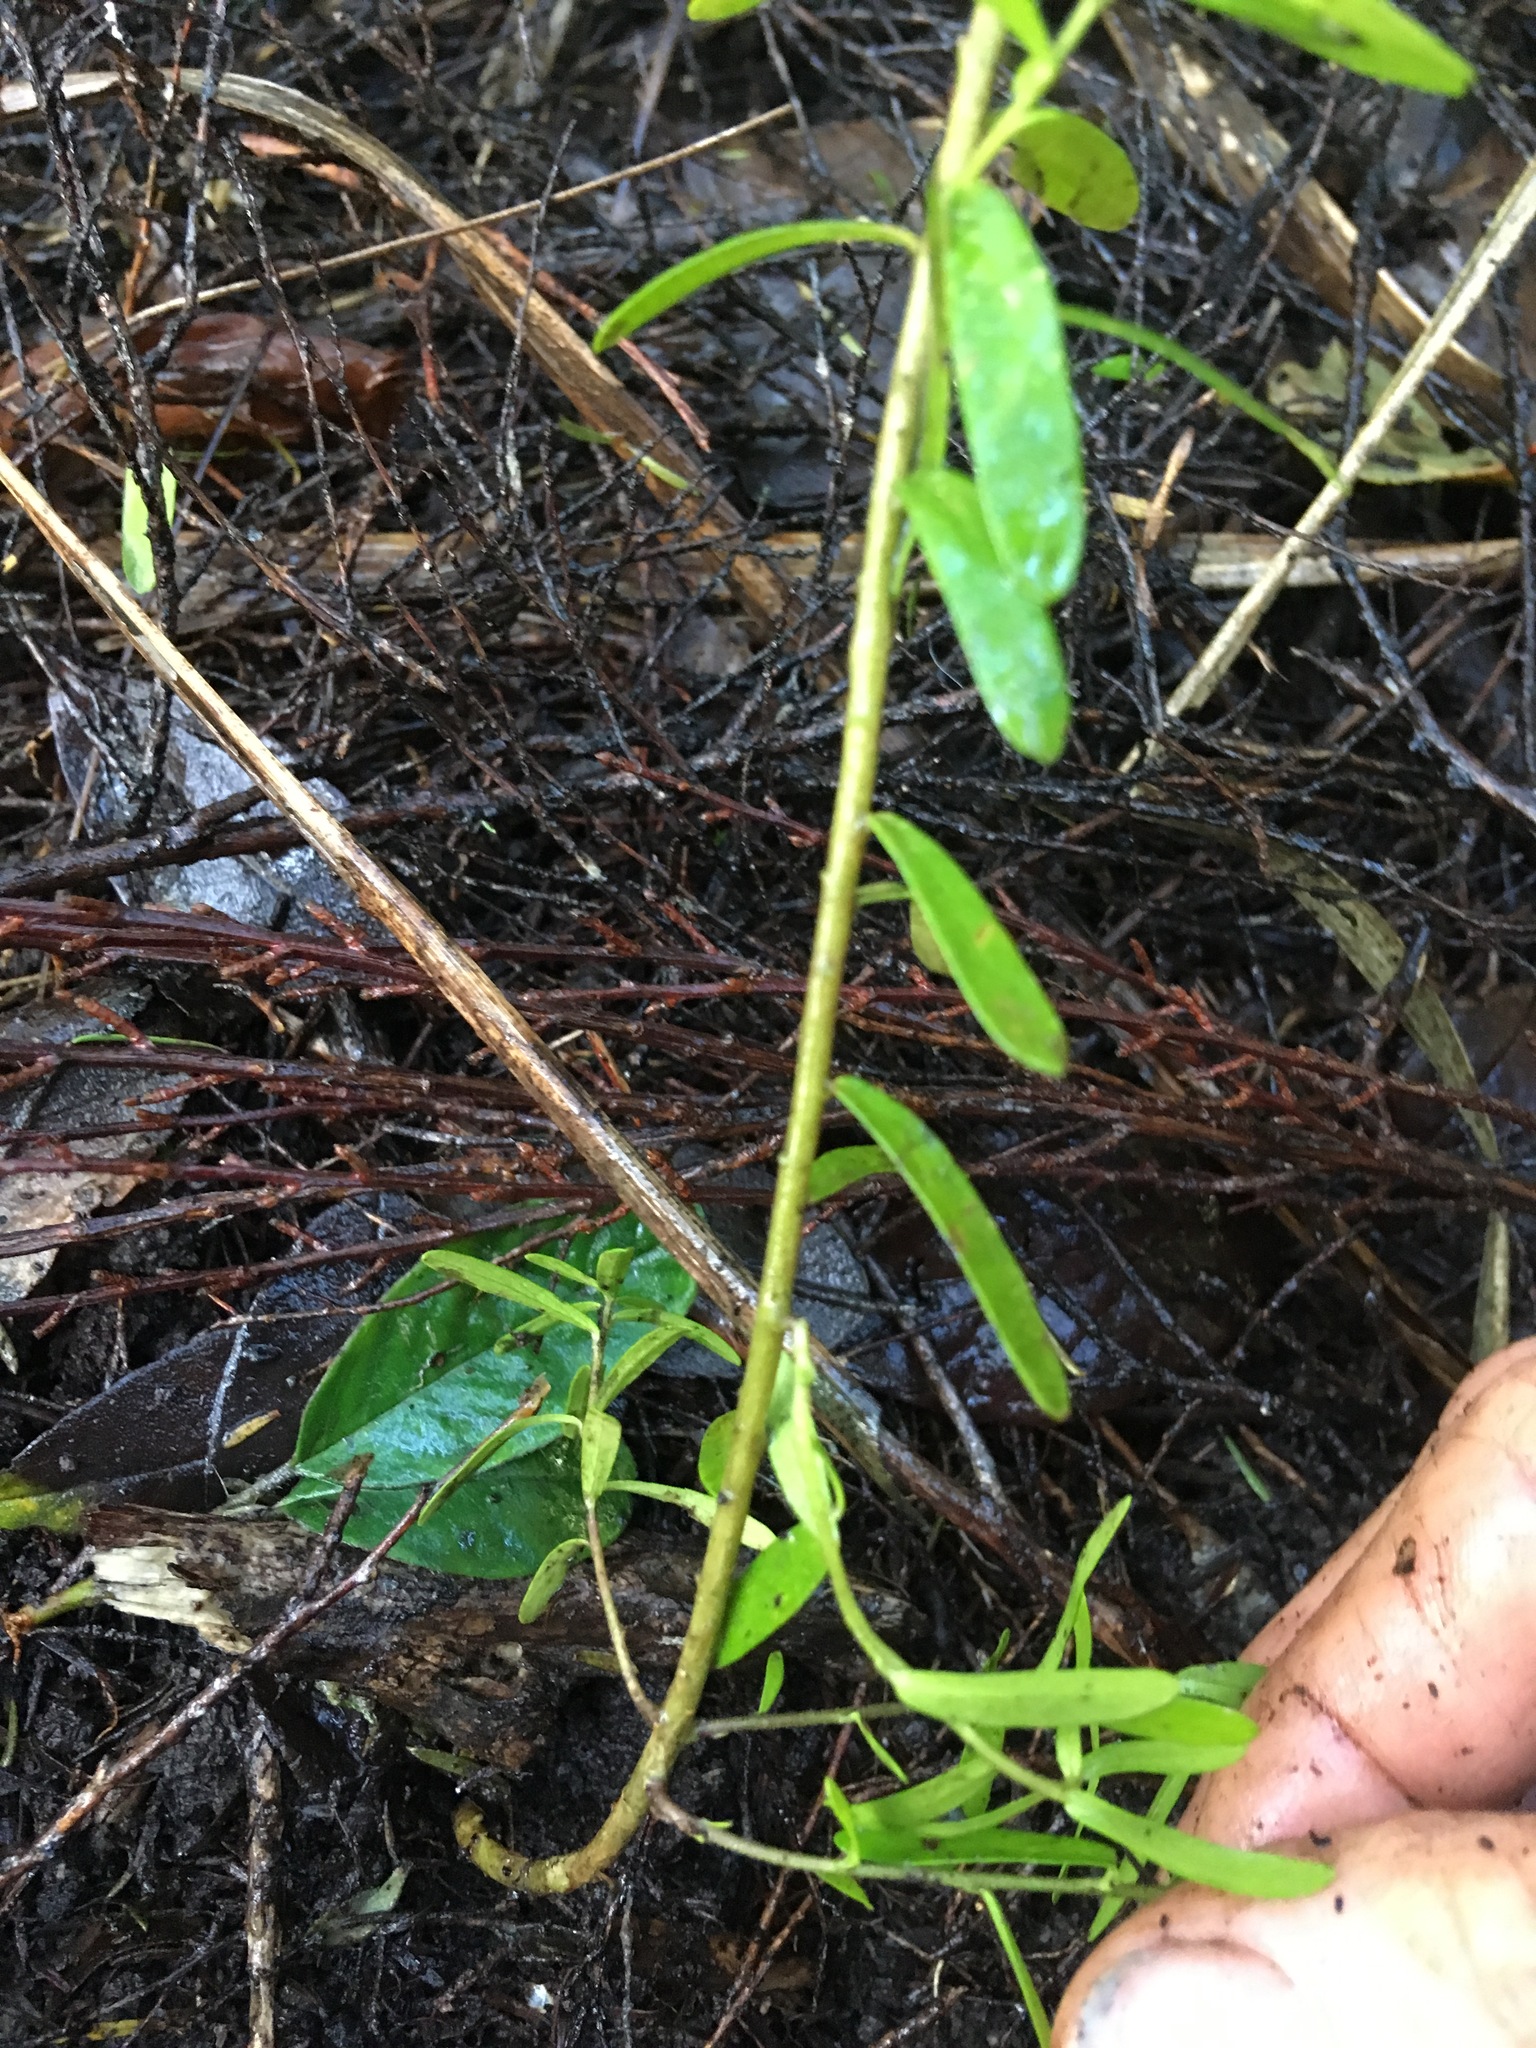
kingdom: Plantae
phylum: Tracheophyta
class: Magnoliopsida
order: Fabales
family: Polygalaceae
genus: Polygala
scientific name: Polygala myrtifolia
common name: Myrtle-leaf milkwort
